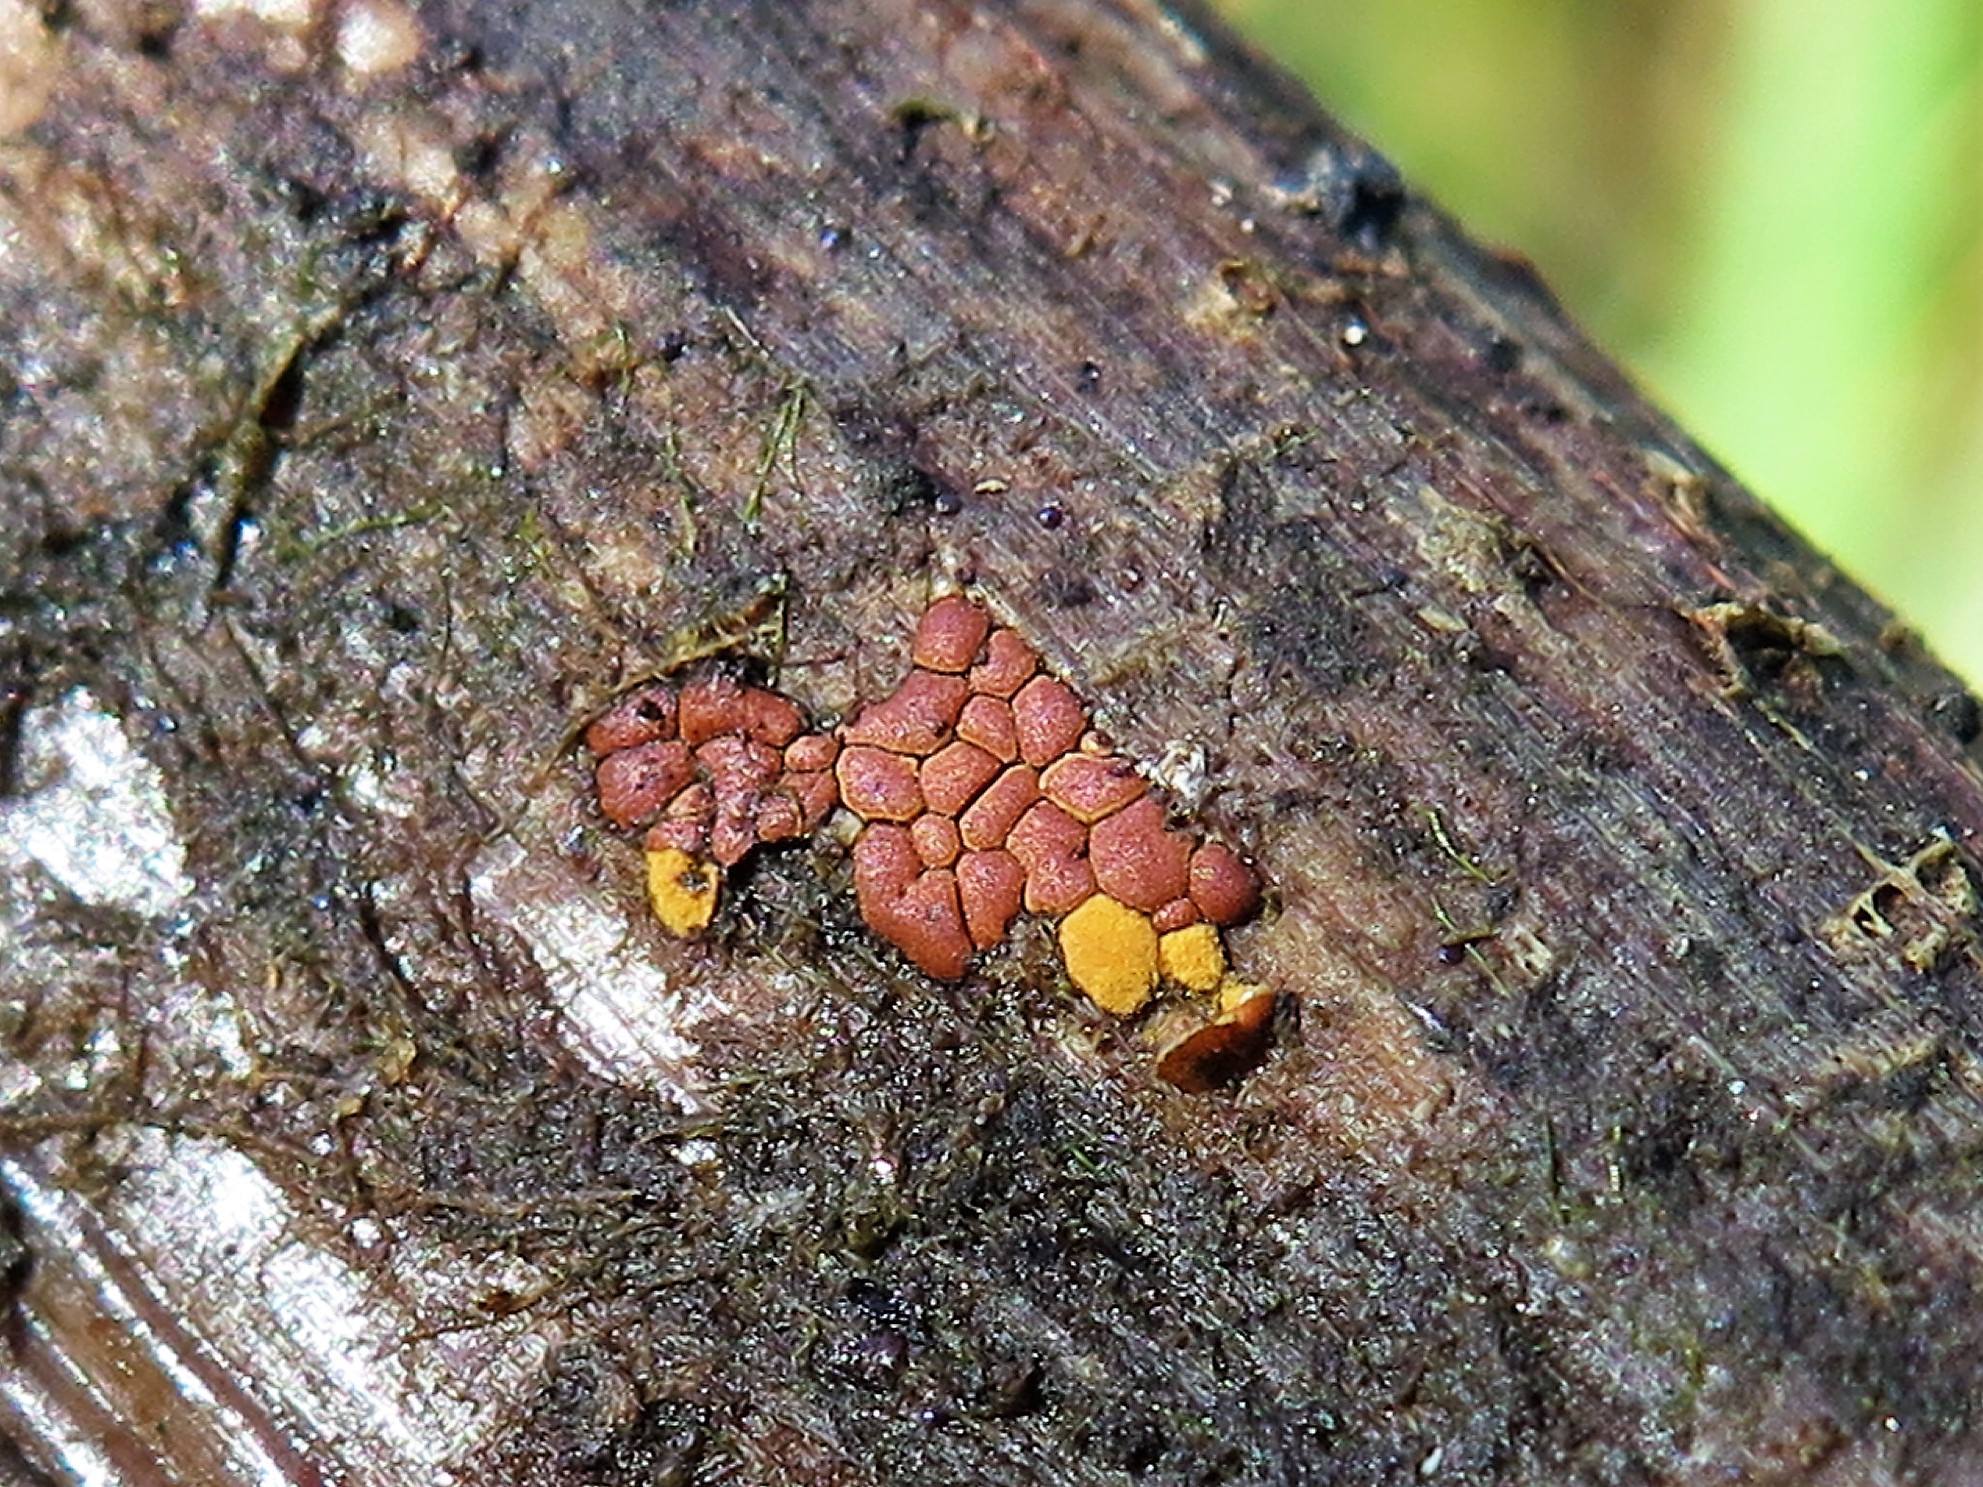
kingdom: Protozoa
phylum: Mycetozoa
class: Myxomycetes
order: Trichiales
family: Trichiaceae
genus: Perichaena
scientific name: Perichaena depressa
